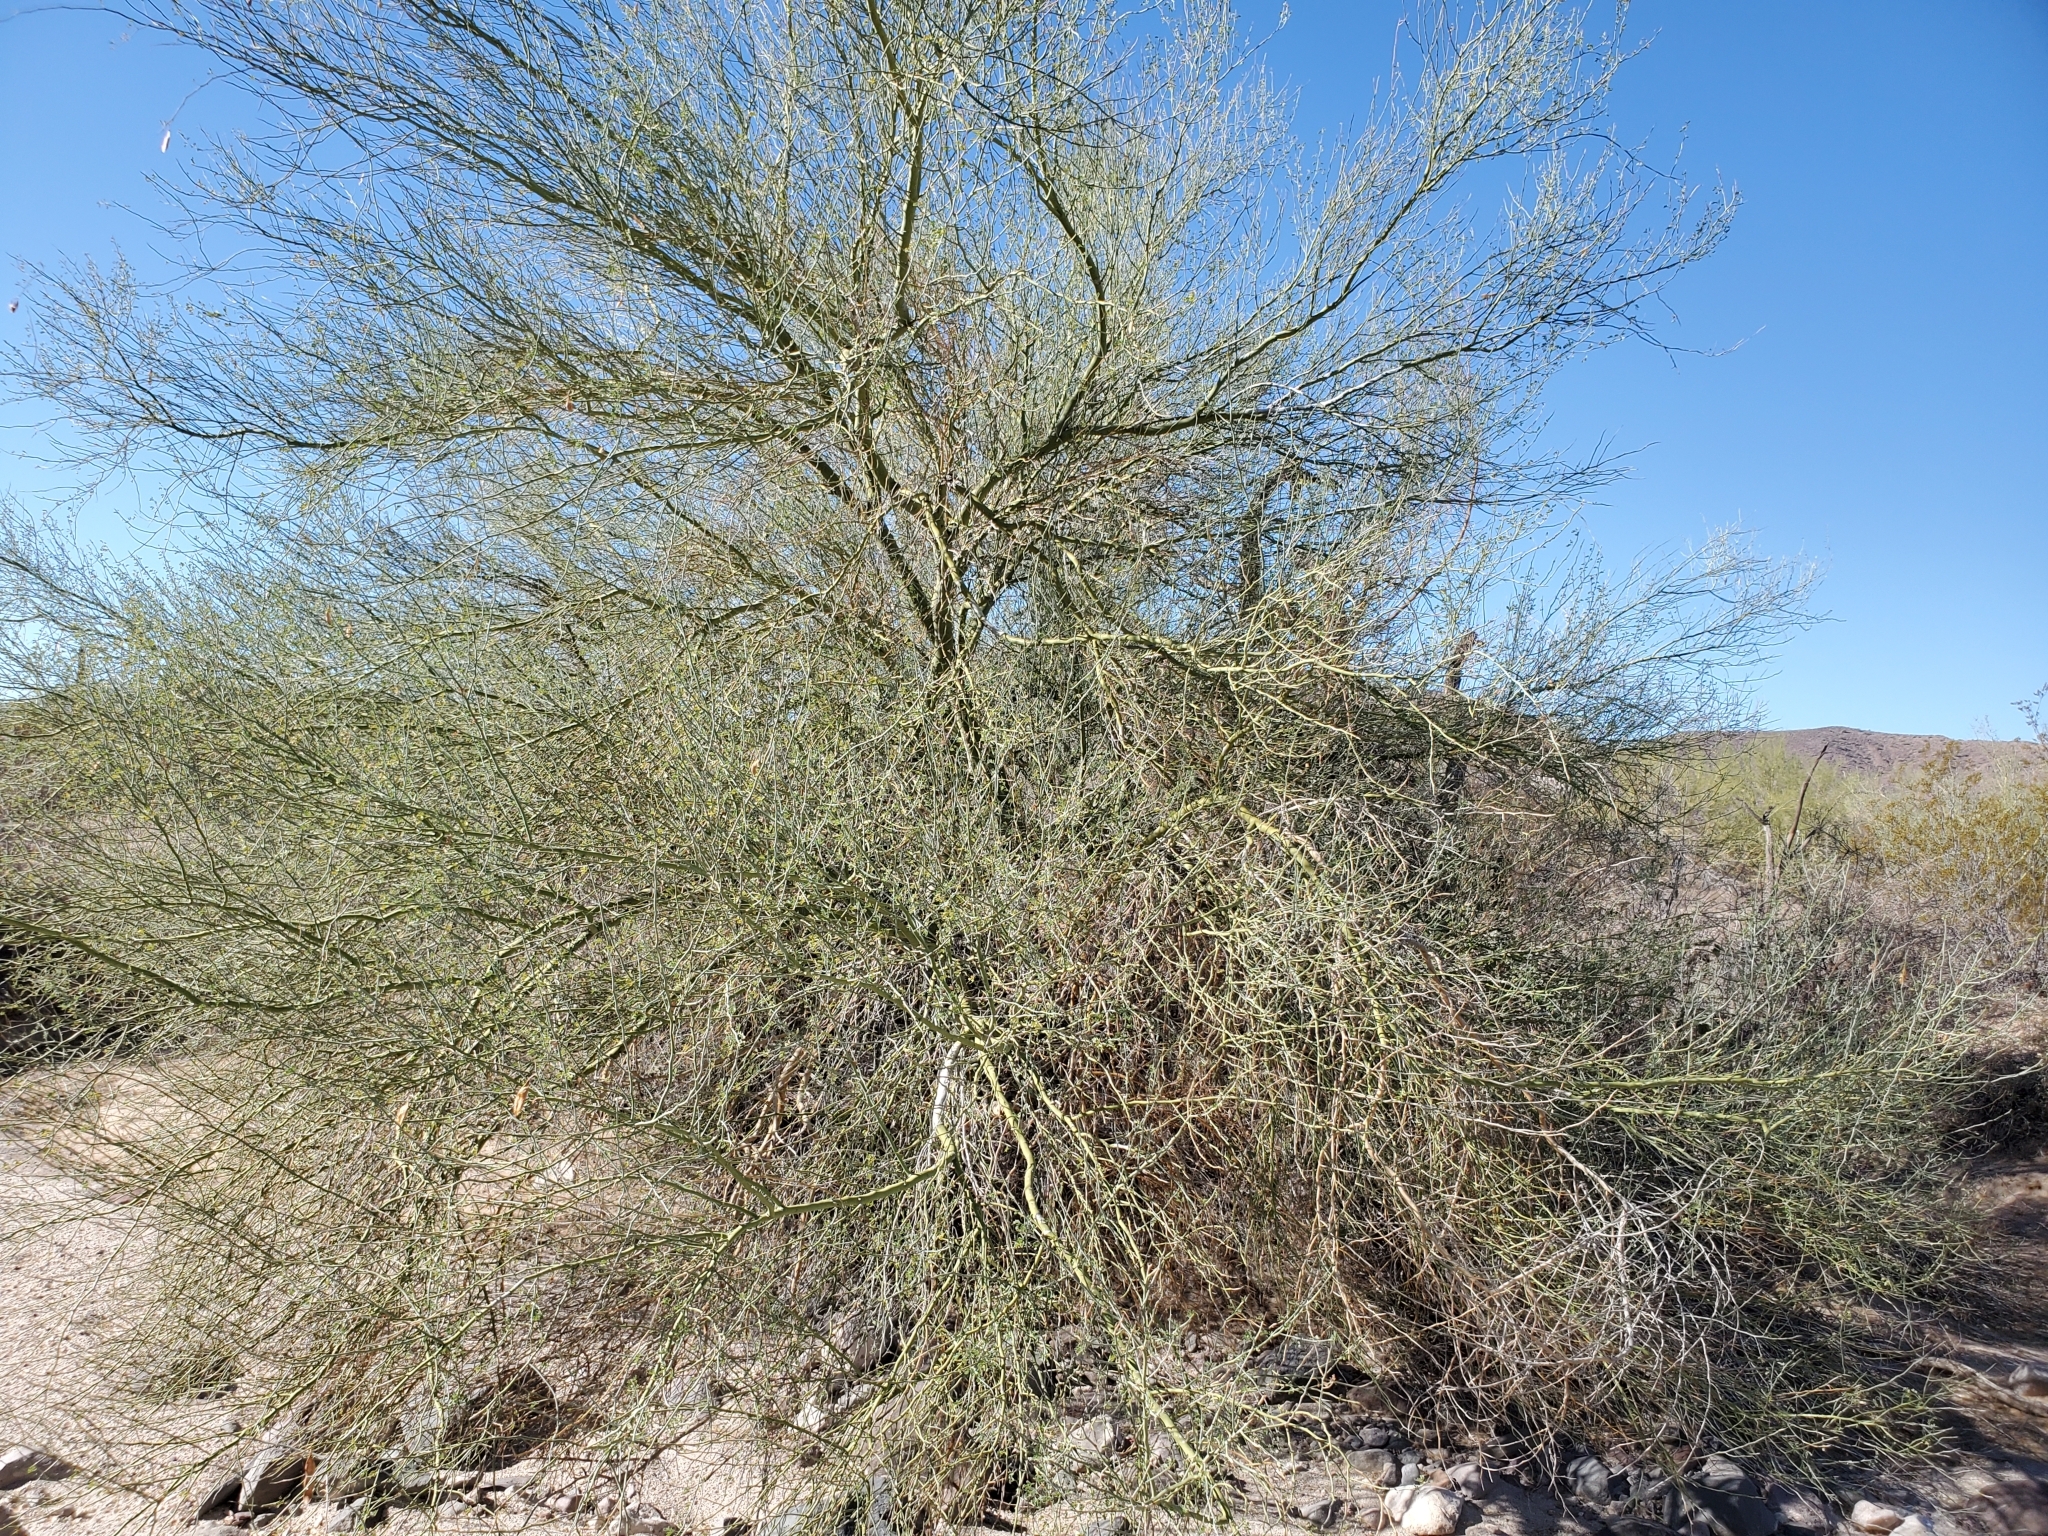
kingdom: Plantae
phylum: Tracheophyta
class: Magnoliopsida
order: Fabales
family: Fabaceae
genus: Parkinsonia
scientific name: Parkinsonia florida
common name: Blue paloverde
